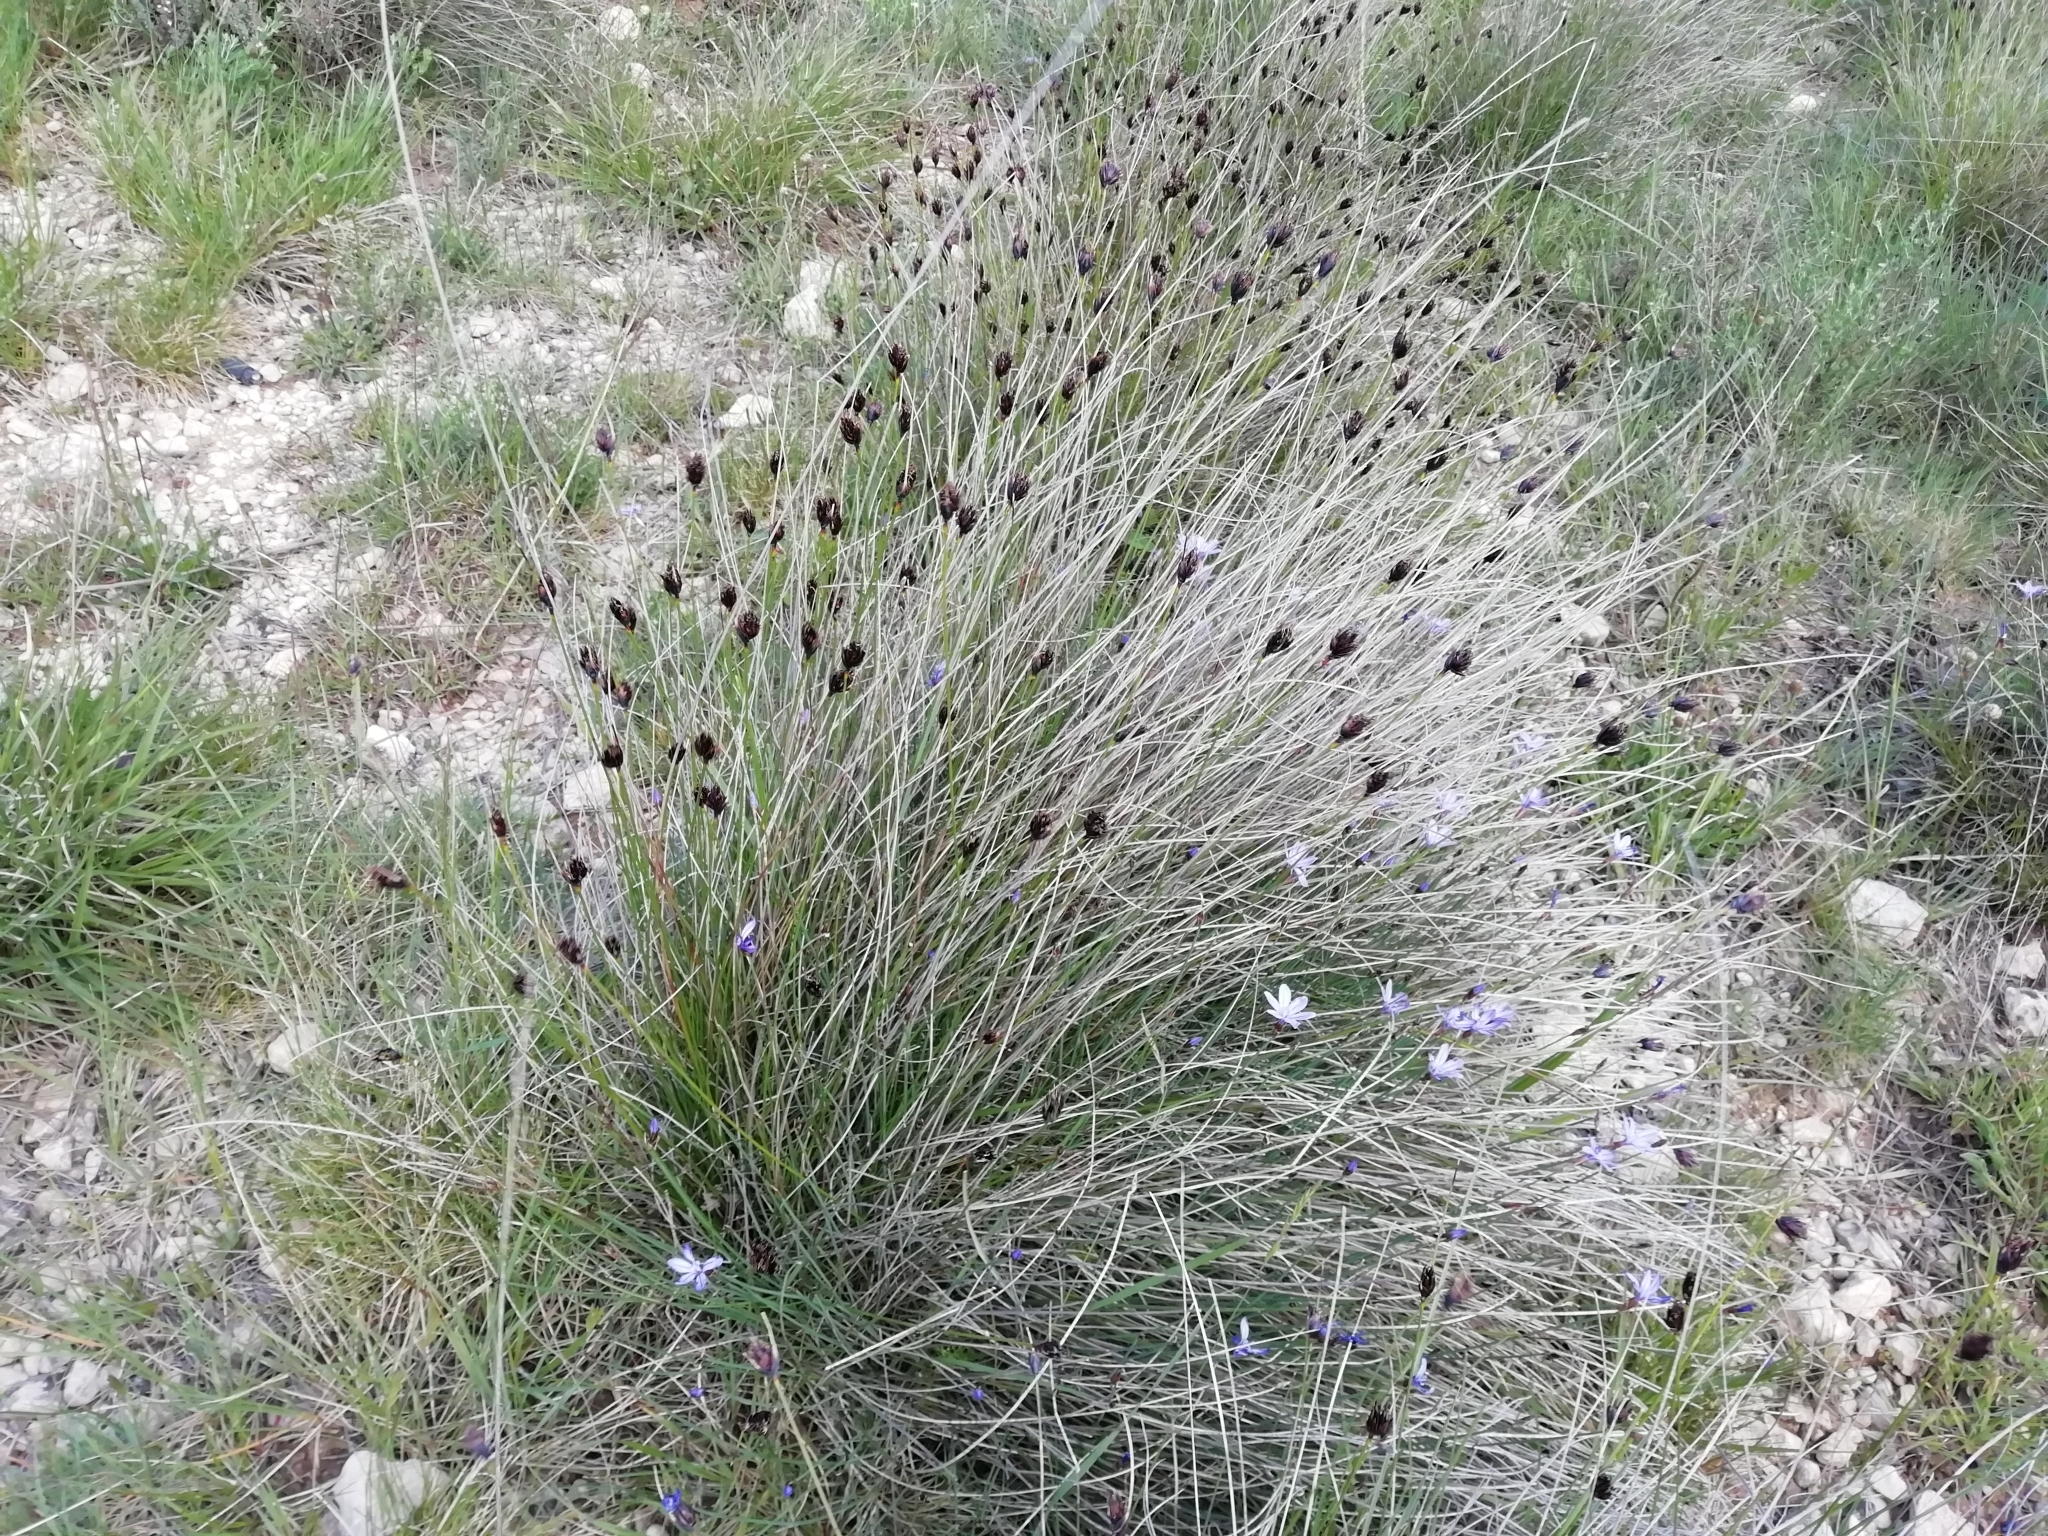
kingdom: Plantae
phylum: Tracheophyta
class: Liliopsida
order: Poales
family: Cyperaceae
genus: Schoenus
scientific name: Schoenus nigricans
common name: Black bog-rush
